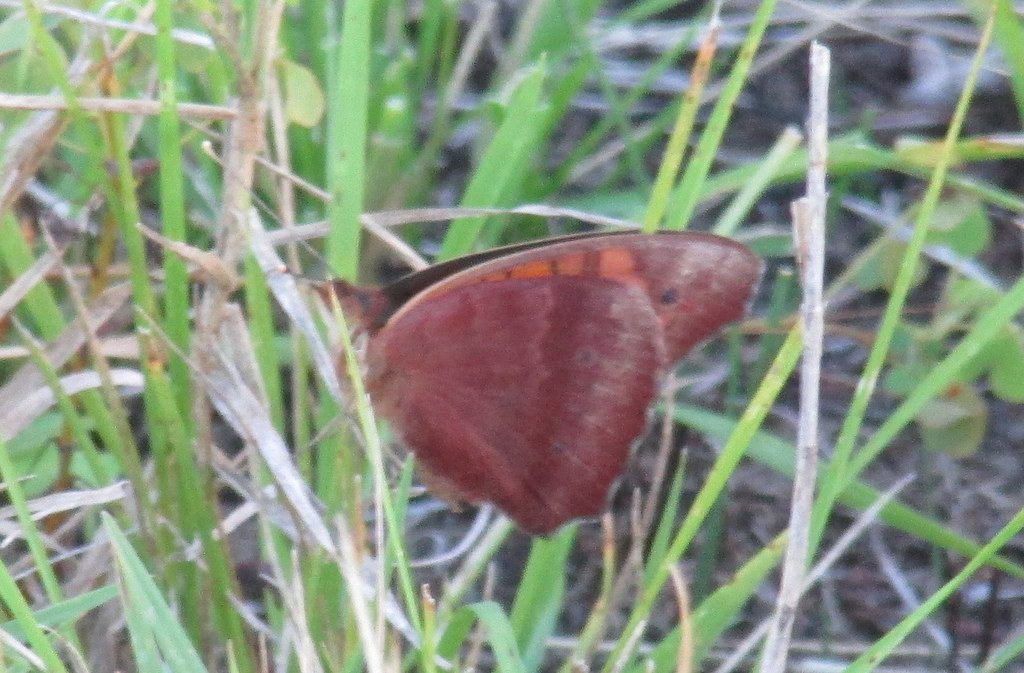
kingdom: Animalia
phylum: Arthropoda
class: Insecta
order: Lepidoptera
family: Nymphalidae
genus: Junonia
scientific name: Junonia lavinia
